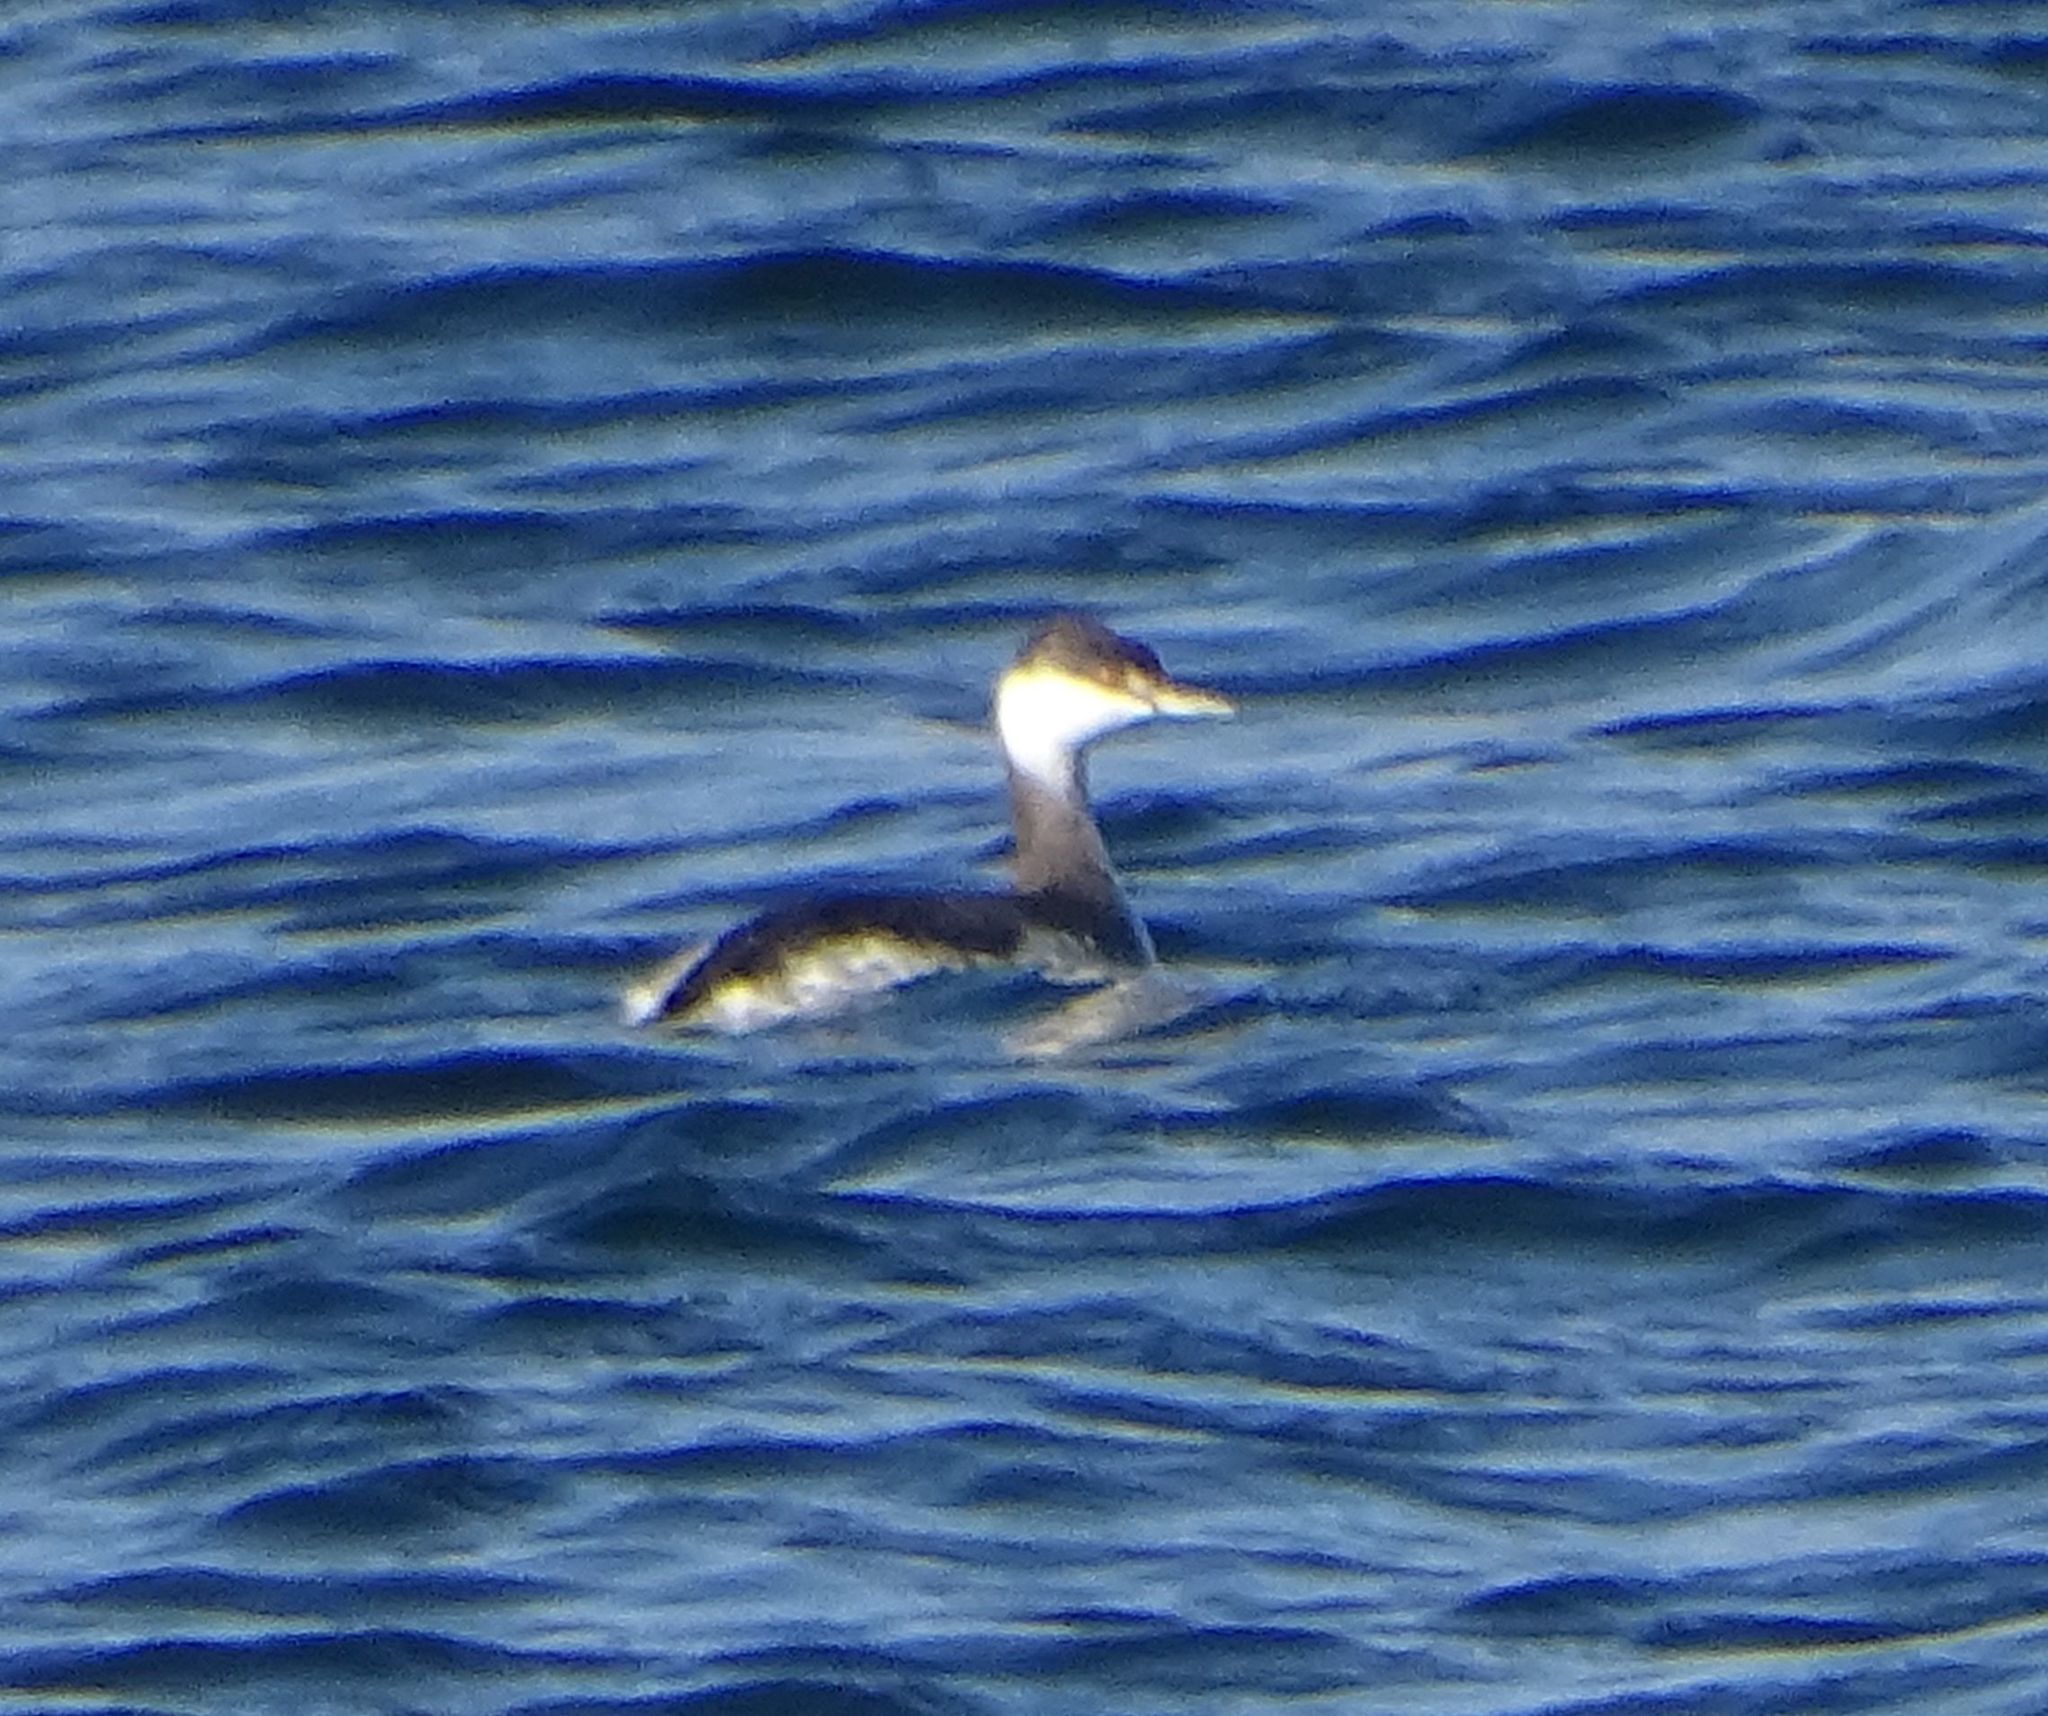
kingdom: Animalia
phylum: Chordata
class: Aves
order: Podicipediformes
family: Podicipedidae
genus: Podiceps
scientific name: Podiceps auritus
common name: Horned grebe
